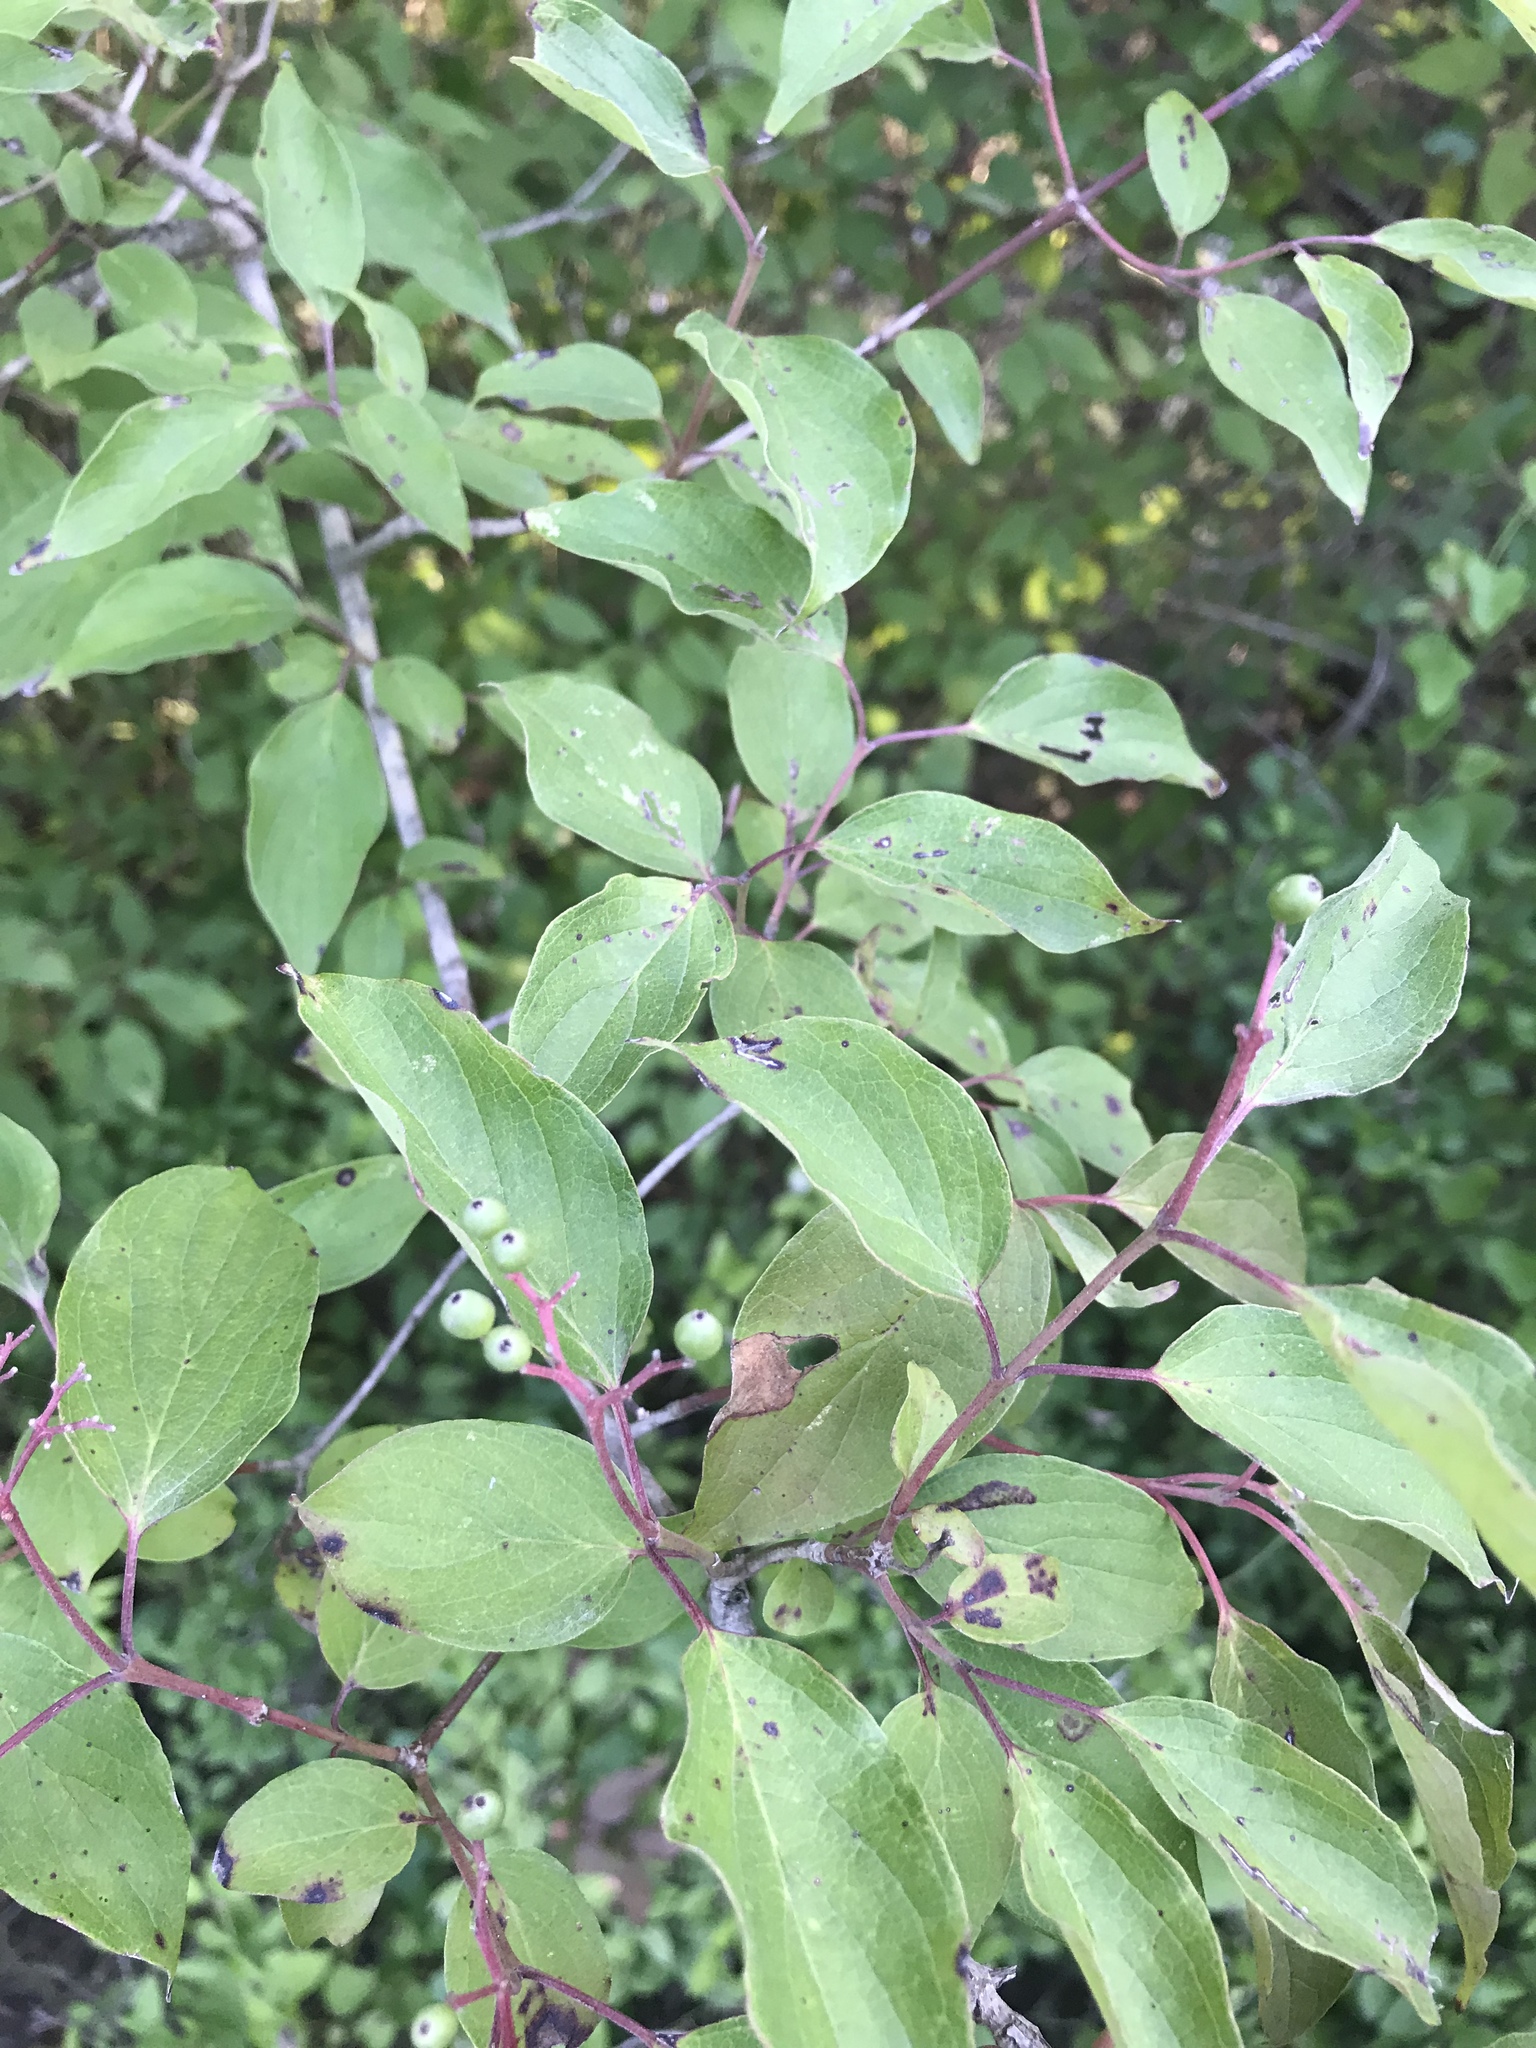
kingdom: Plantae
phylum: Tracheophyta
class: Magnoliopsida
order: Cornales
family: Cornaceae
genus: Cornus
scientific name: Cornus drummondii
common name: Rough-leaf dogwood
